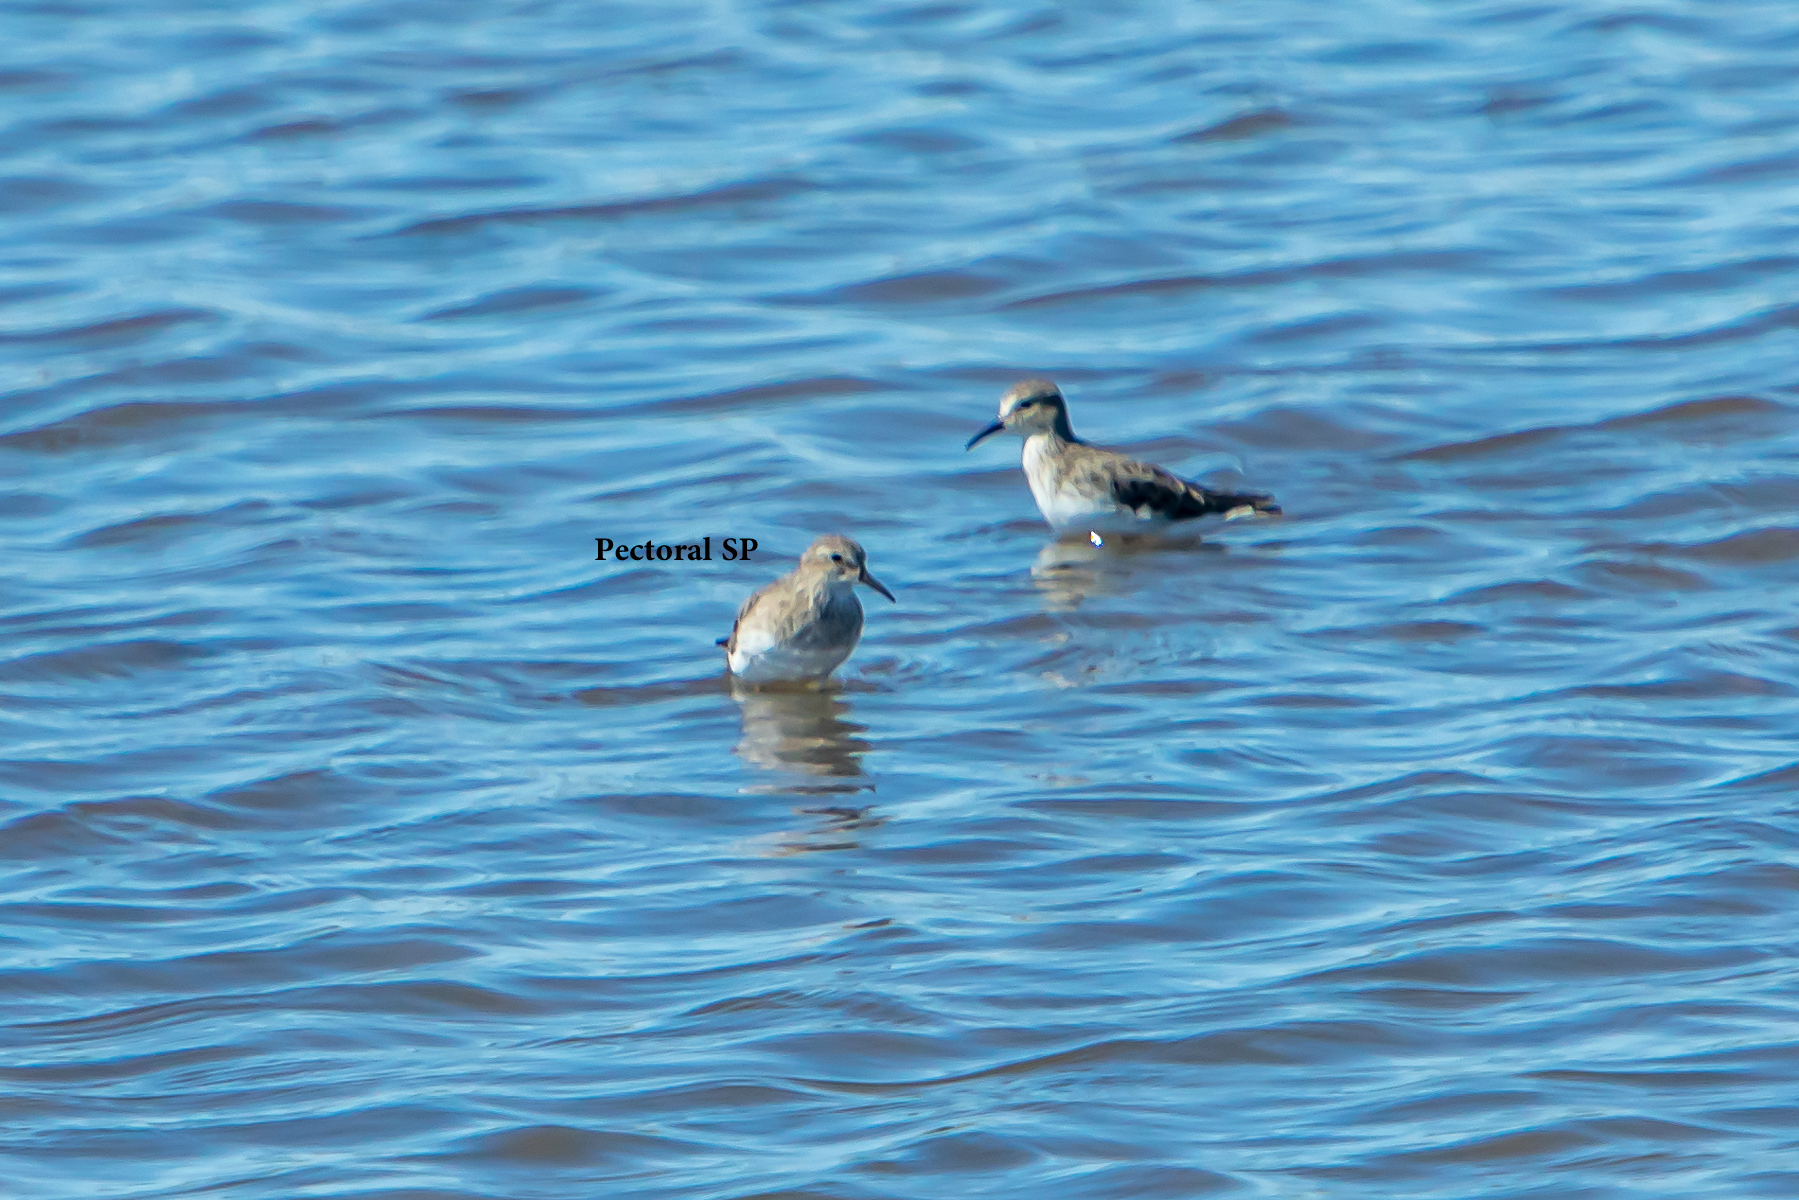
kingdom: Animalia
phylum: Chordata
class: Aves
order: Charadriiformes
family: Scolopacidae
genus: Calidris
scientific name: Calidris melanotos
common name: Pectoral sandpiper
